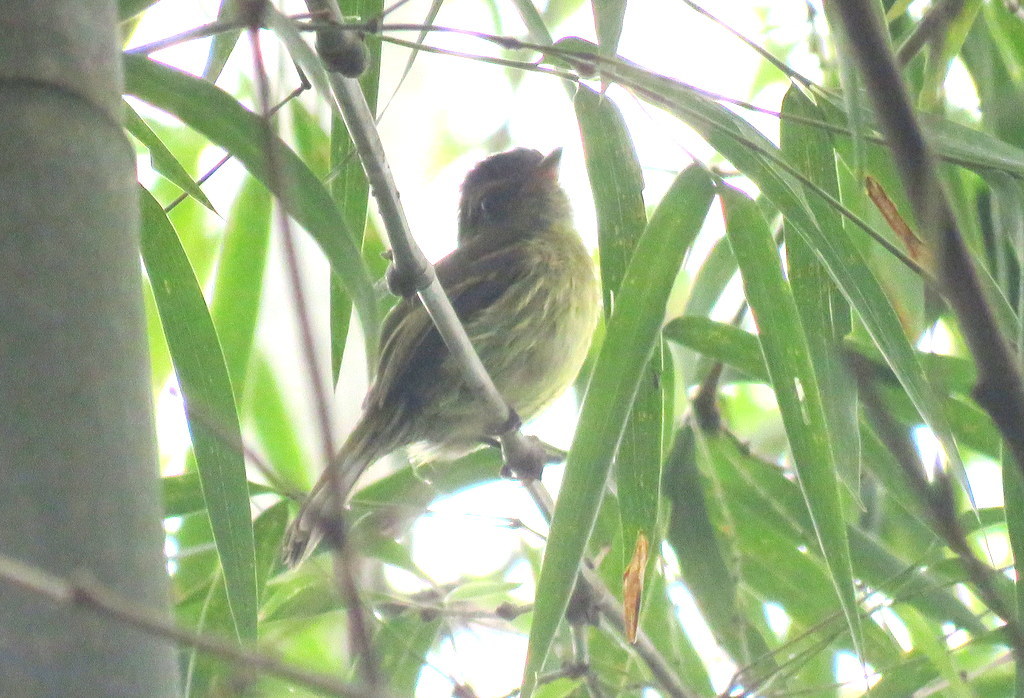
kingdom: Animalia
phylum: Chordata
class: Aves
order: Passeriformes
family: Tyrannidae
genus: Ramphotrigon
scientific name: Ramphotrigon megacephalum
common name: Large-headed flatbill
